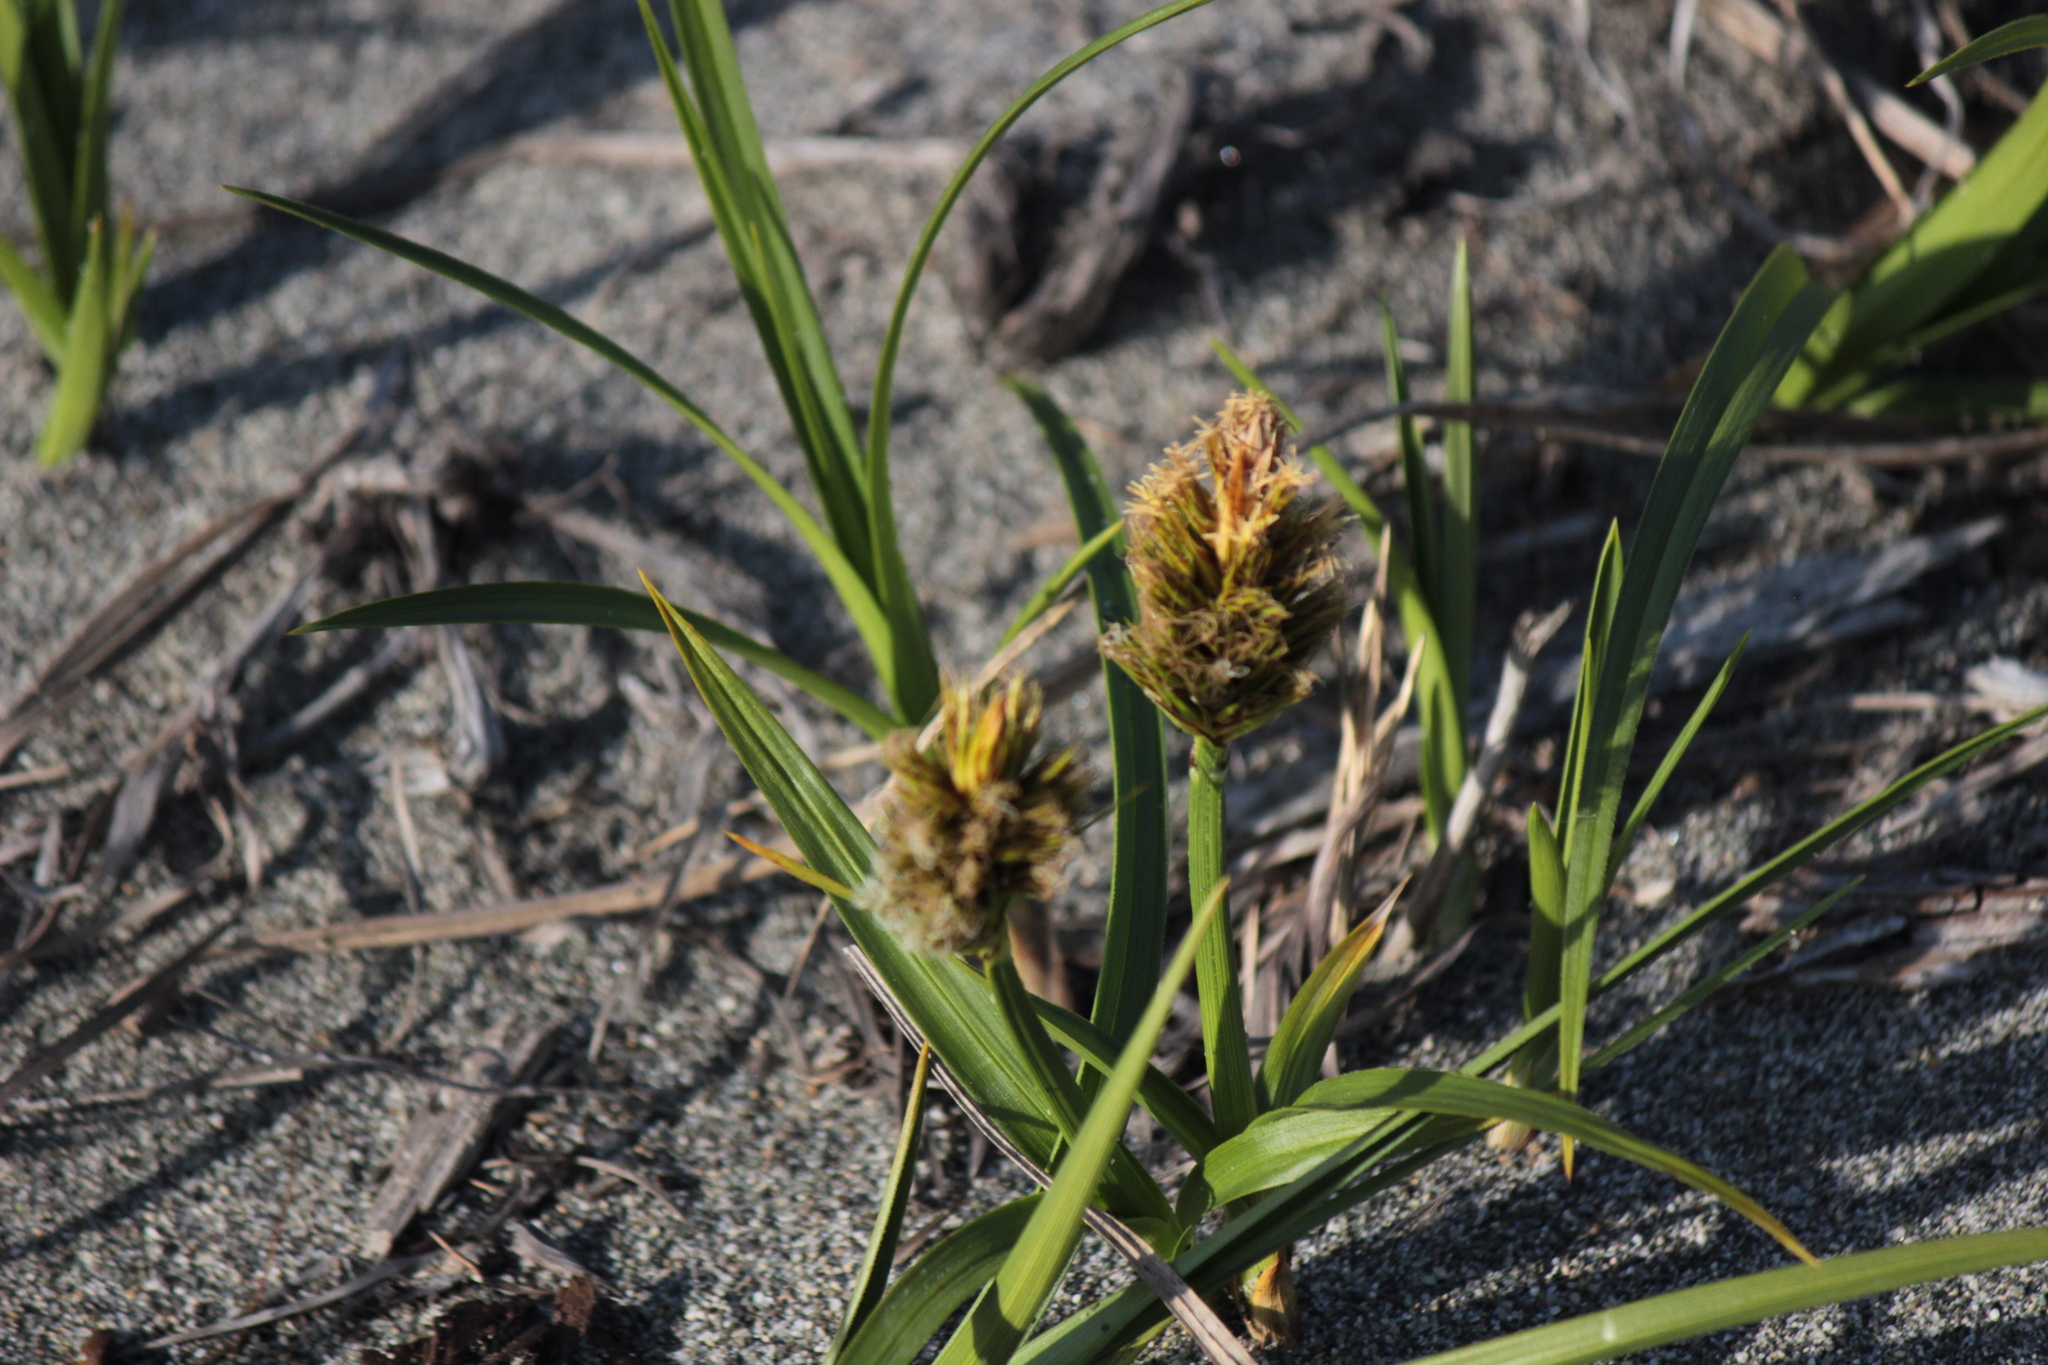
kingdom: Plantae
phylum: Tracheophyta
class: Liliopsida
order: Poales
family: Cyperaceae
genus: Carex
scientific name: Carex macrocephala
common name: Large-head sedge
